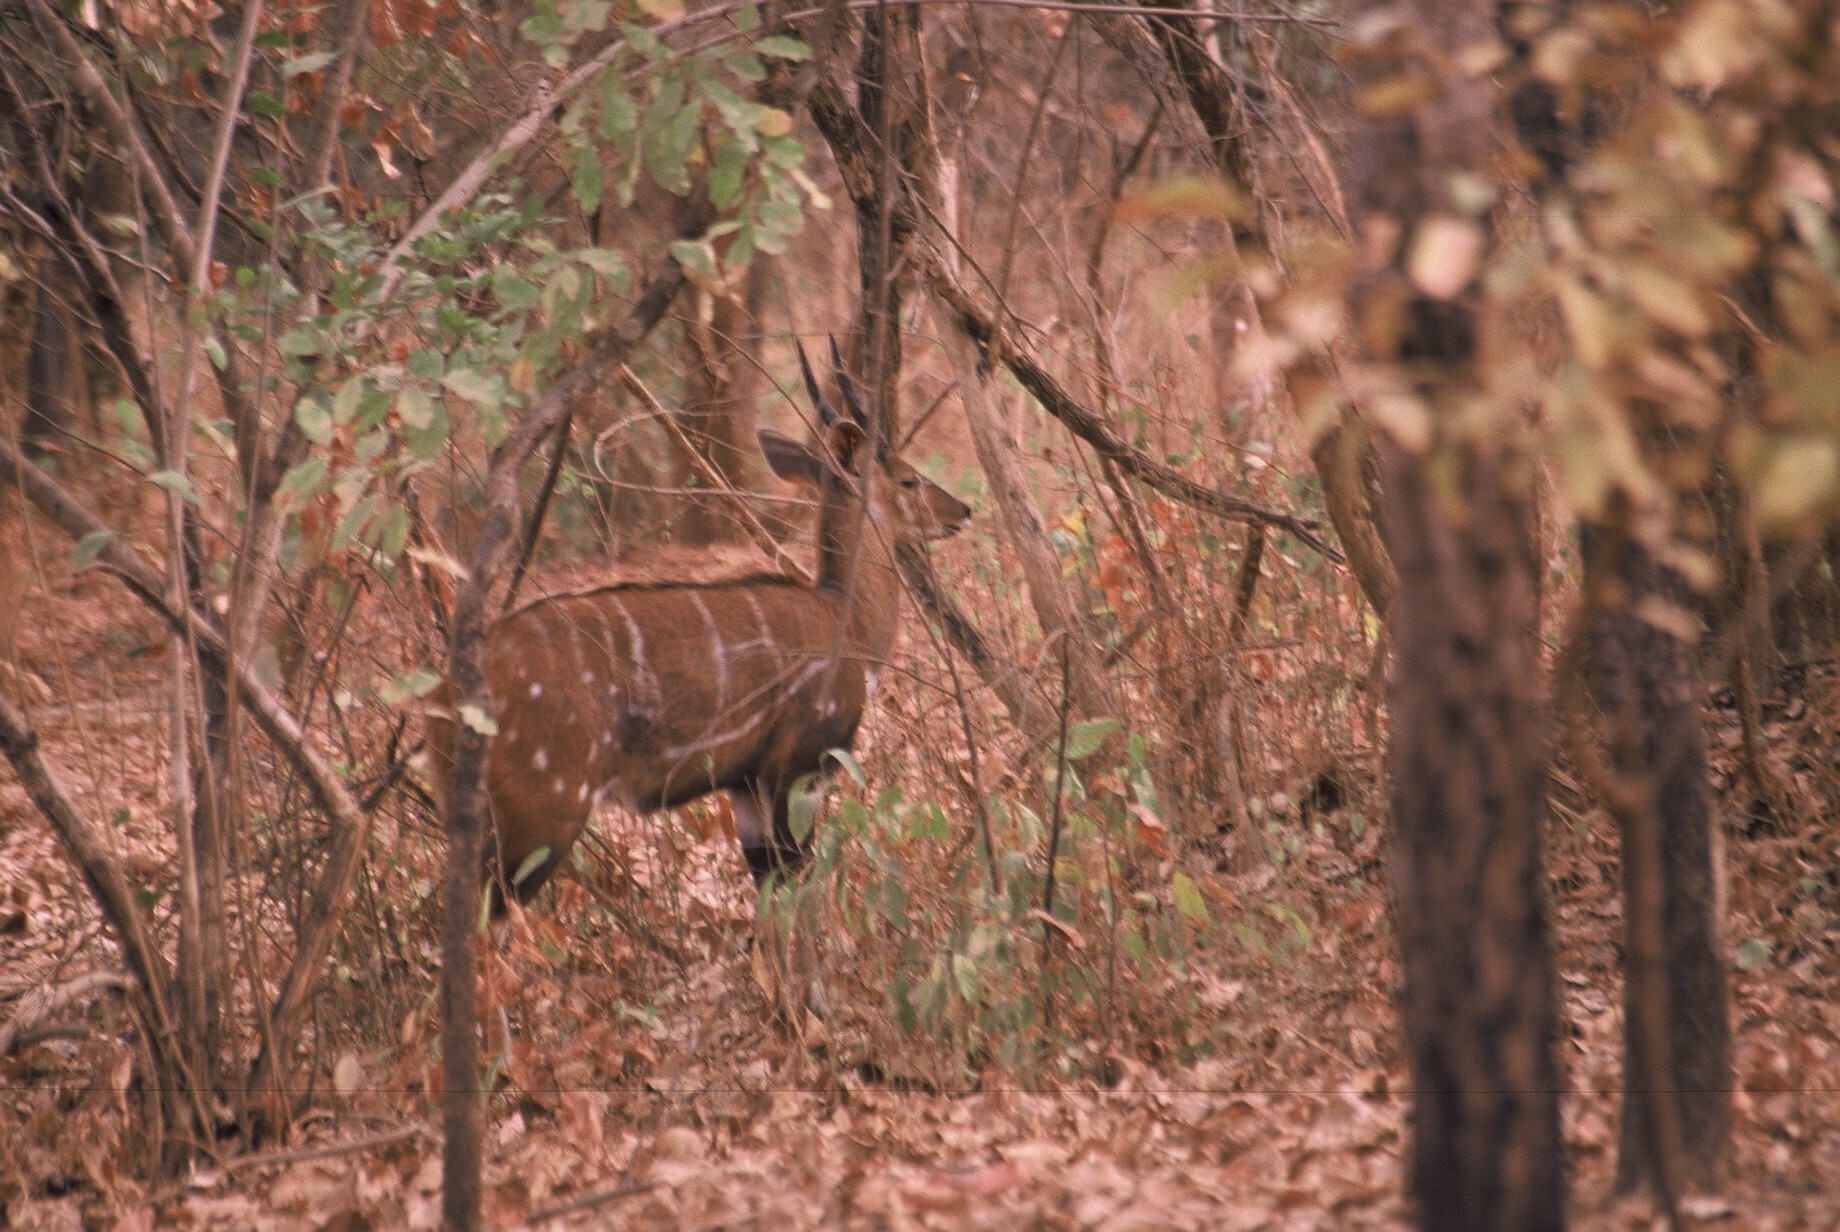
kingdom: Animalia
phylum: Chordata
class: Mammalia
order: Artiodactyla
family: Bovidae
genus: Tragelaphus
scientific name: Tragelaphus scriptus
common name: Bushbuck
